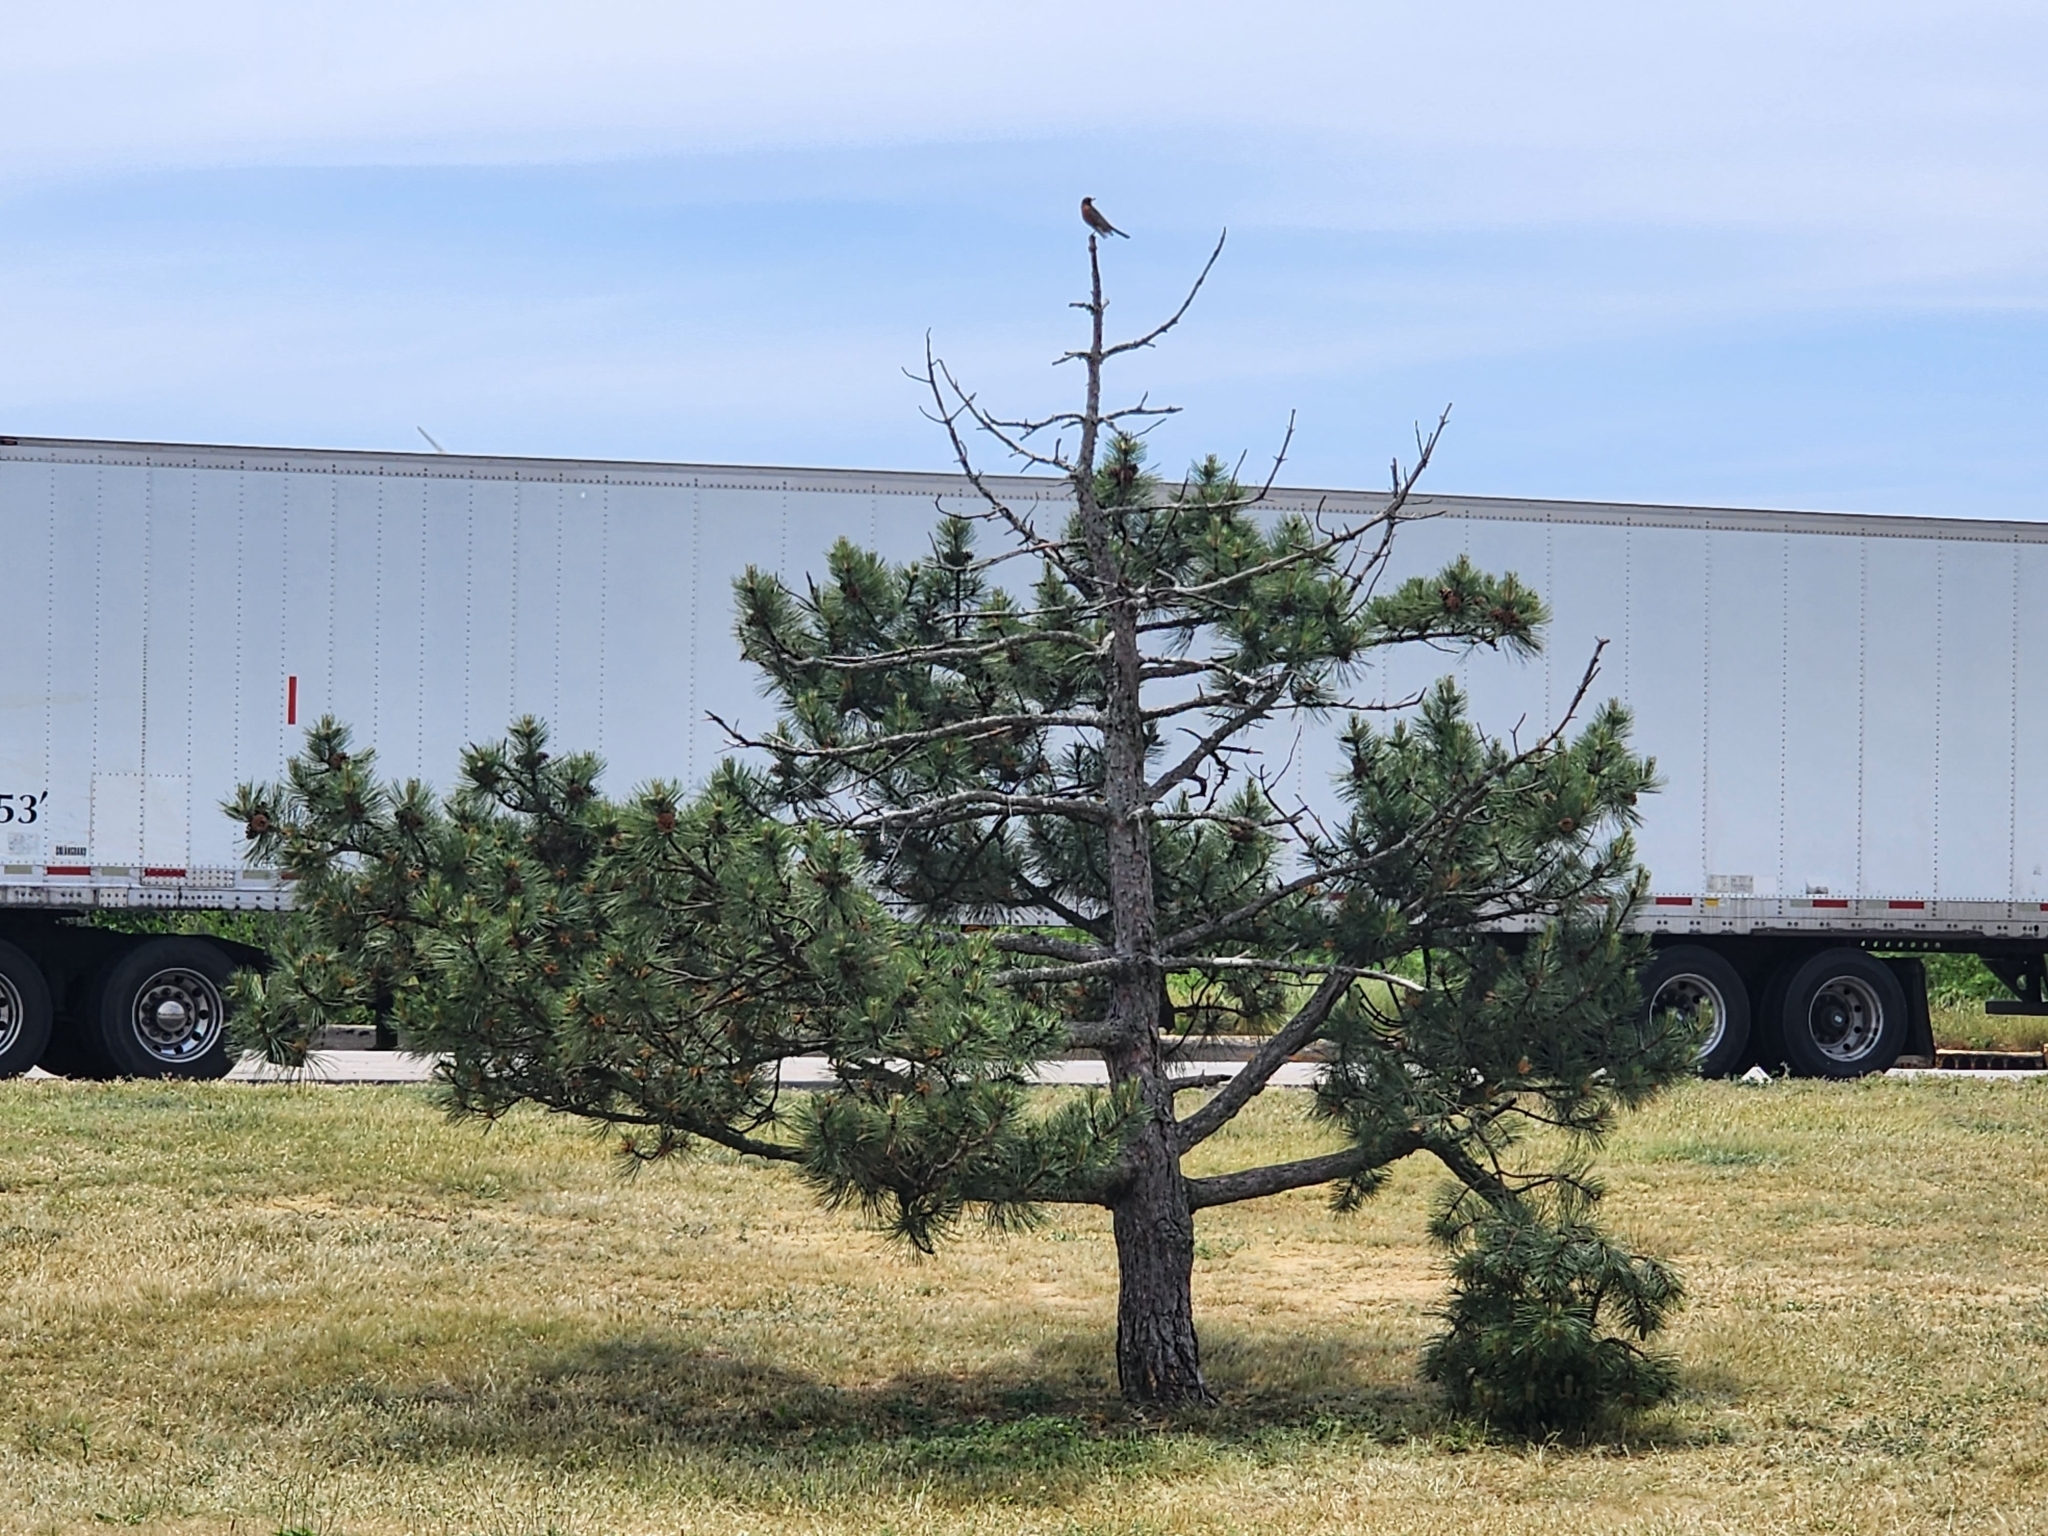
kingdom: Animalia
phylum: Chordata
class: Aves
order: Passeriformes
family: Turdidae
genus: Turdus
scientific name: Turdus migratorius
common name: American robin
